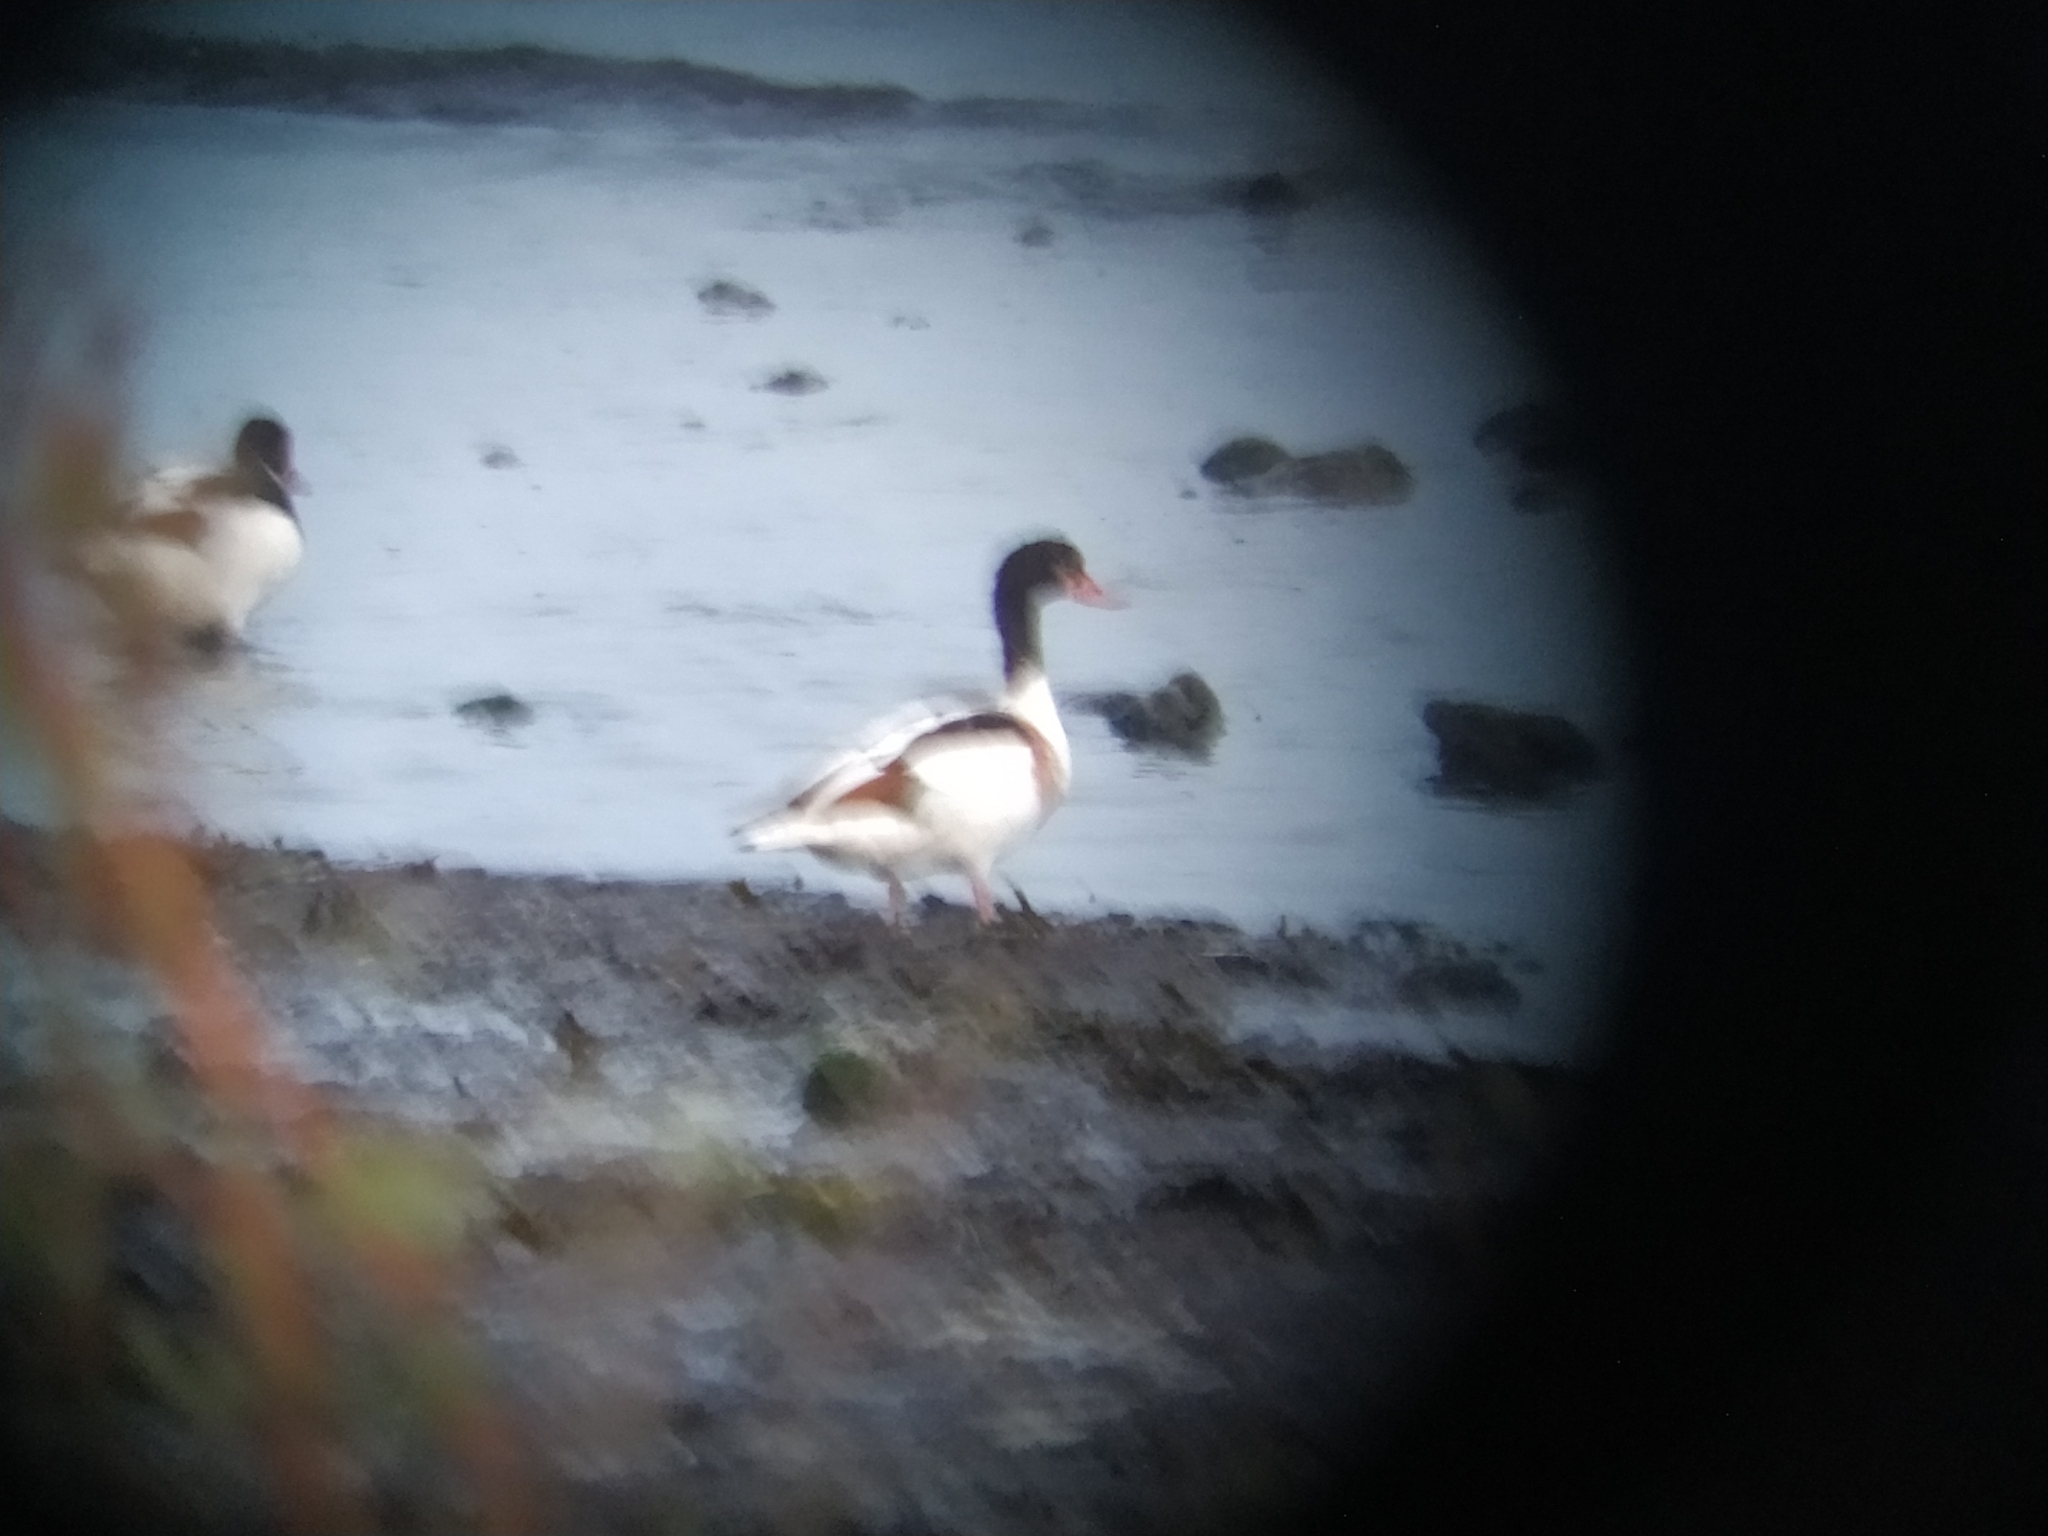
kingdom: Animalia
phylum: Chordata
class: Aves
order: Anseriformes
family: Anatidae
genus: Tadorna
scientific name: Tadorna tadorna
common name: Common shelduck
